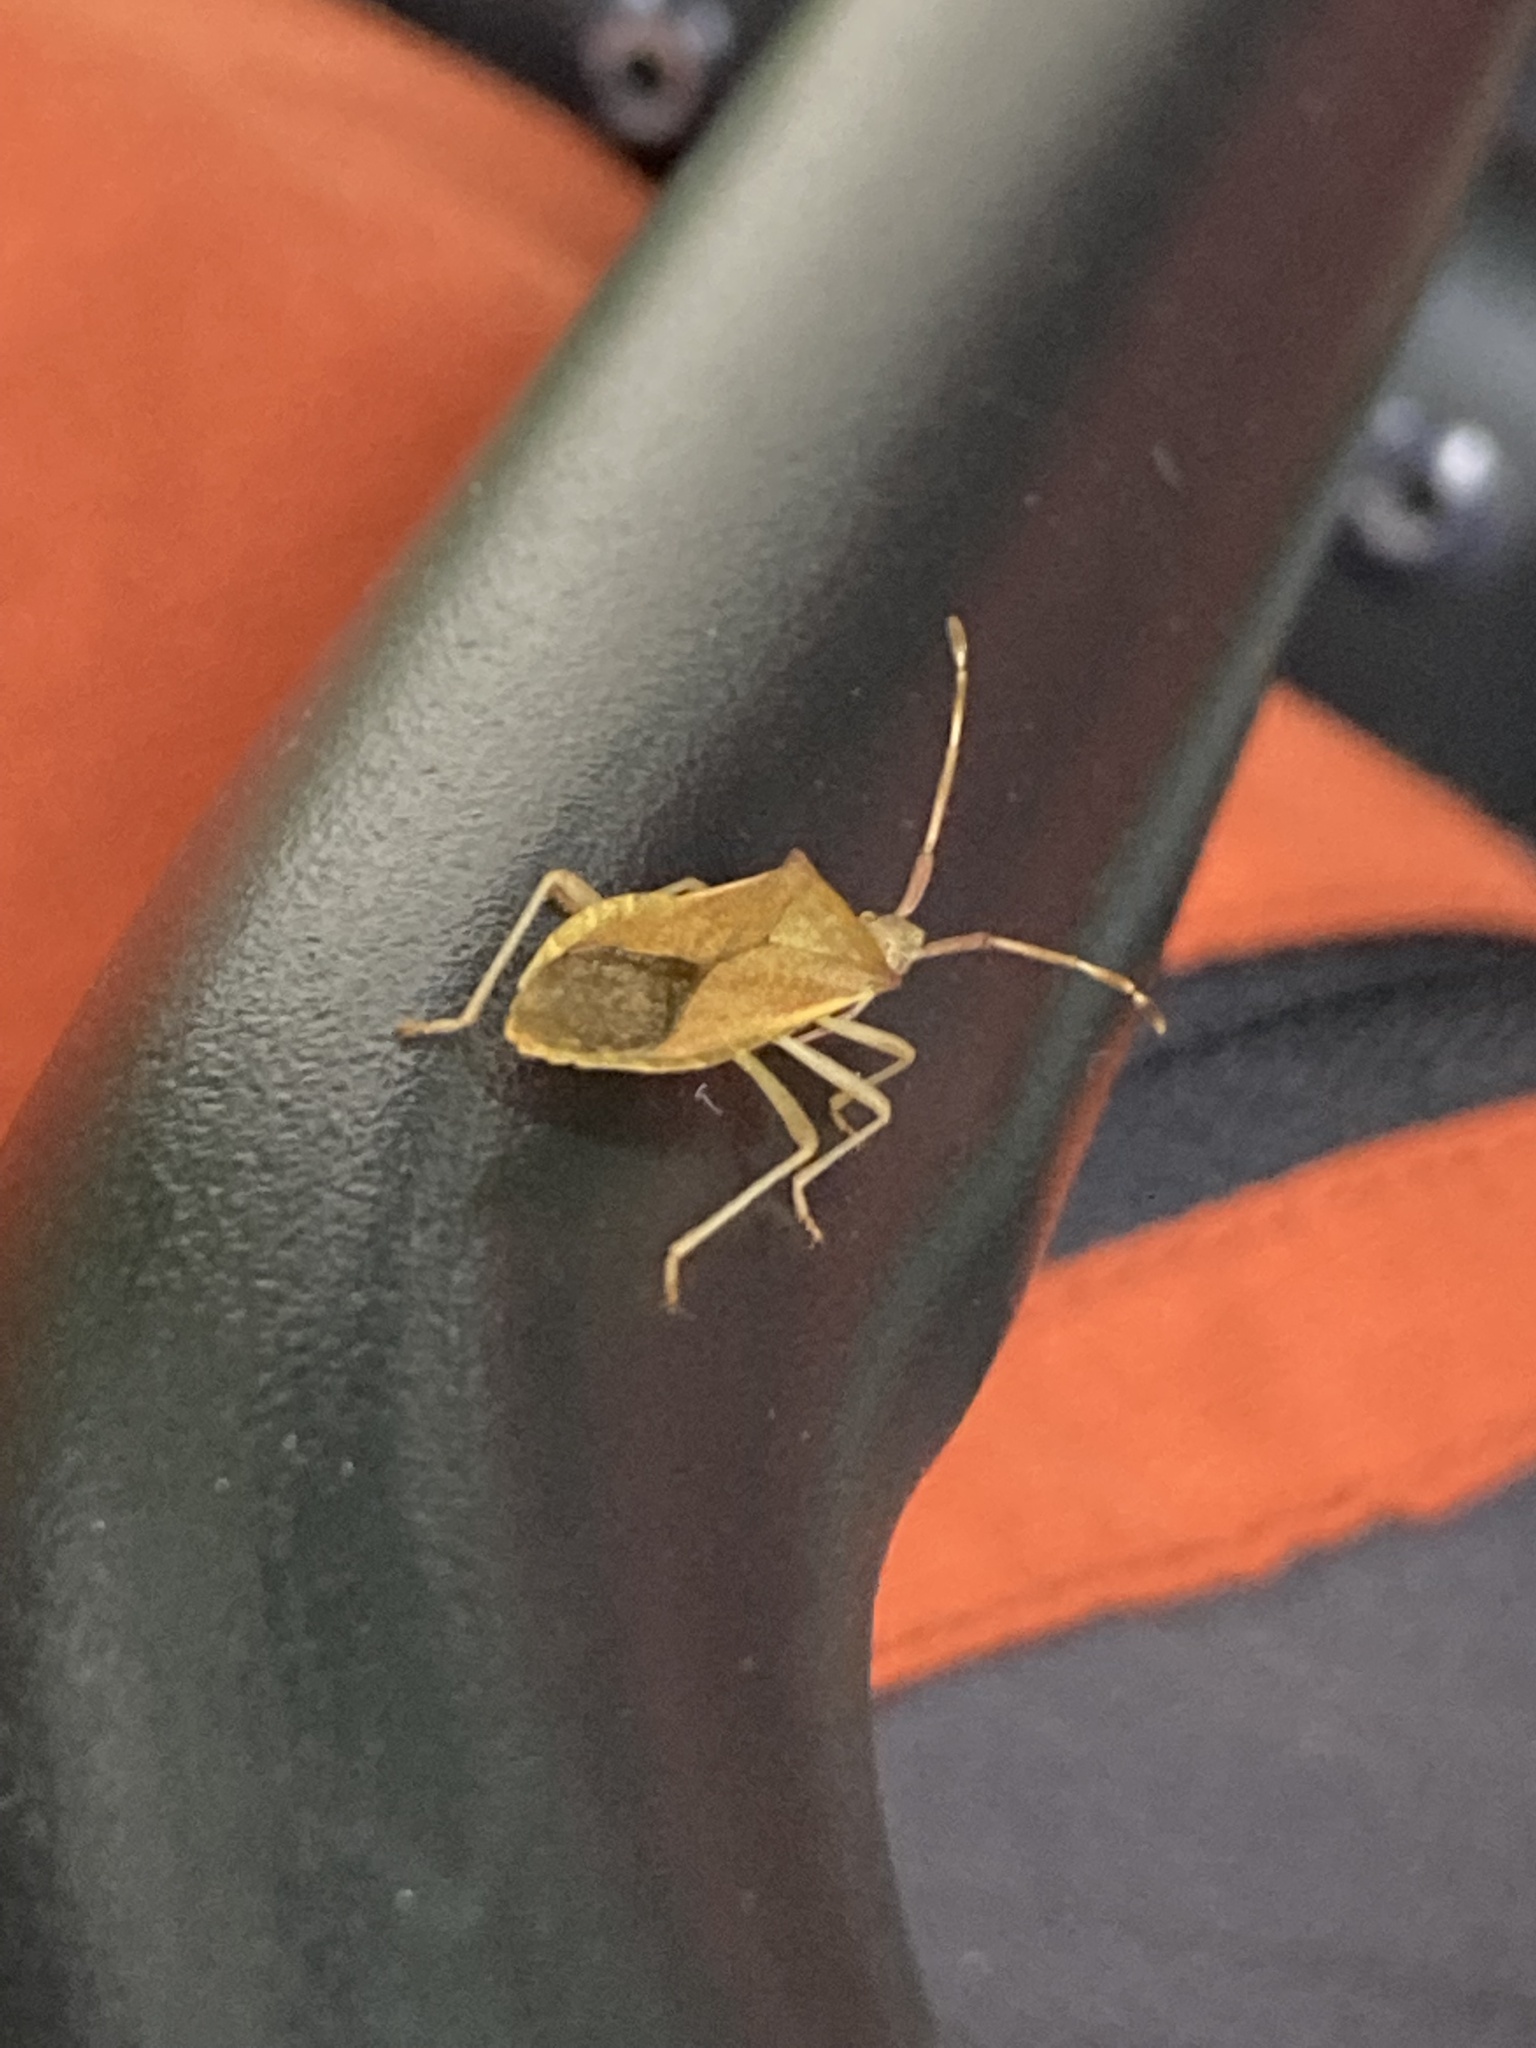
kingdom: Animalia
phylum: Arthropoda
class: Insecta
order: Hemiptera
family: Coreidae
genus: Gonocerus
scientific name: Gonocerus acuteangulatus
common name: Box bug
